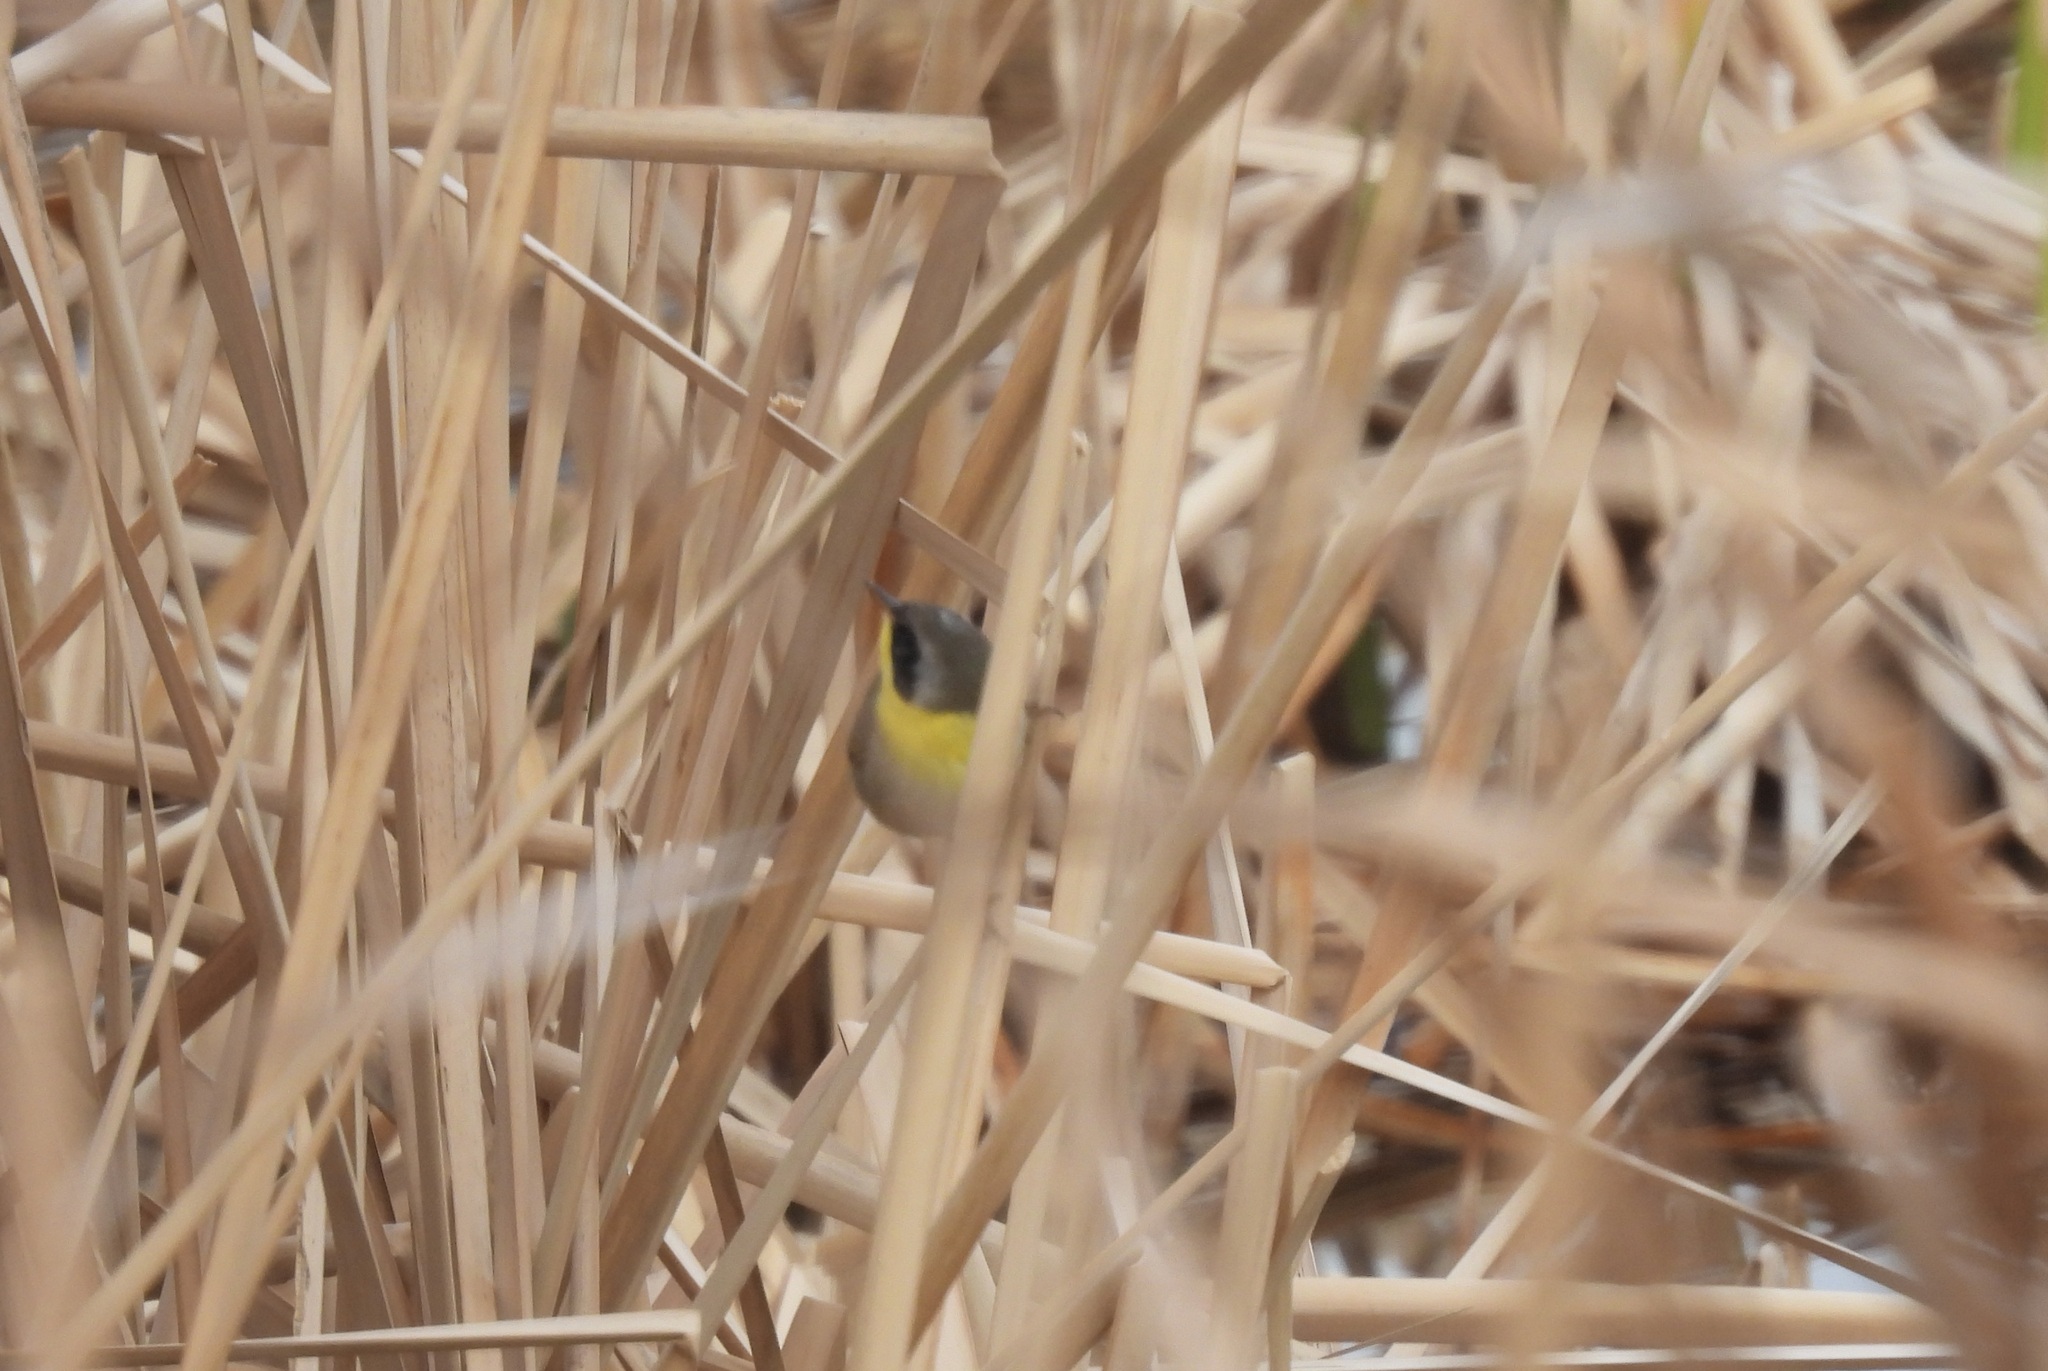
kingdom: Animalia
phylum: Chordata
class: Aves
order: Passeriformes
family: Parulidae
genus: Geothlypis
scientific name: Geothlypis trichas
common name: Common yellowthroat
